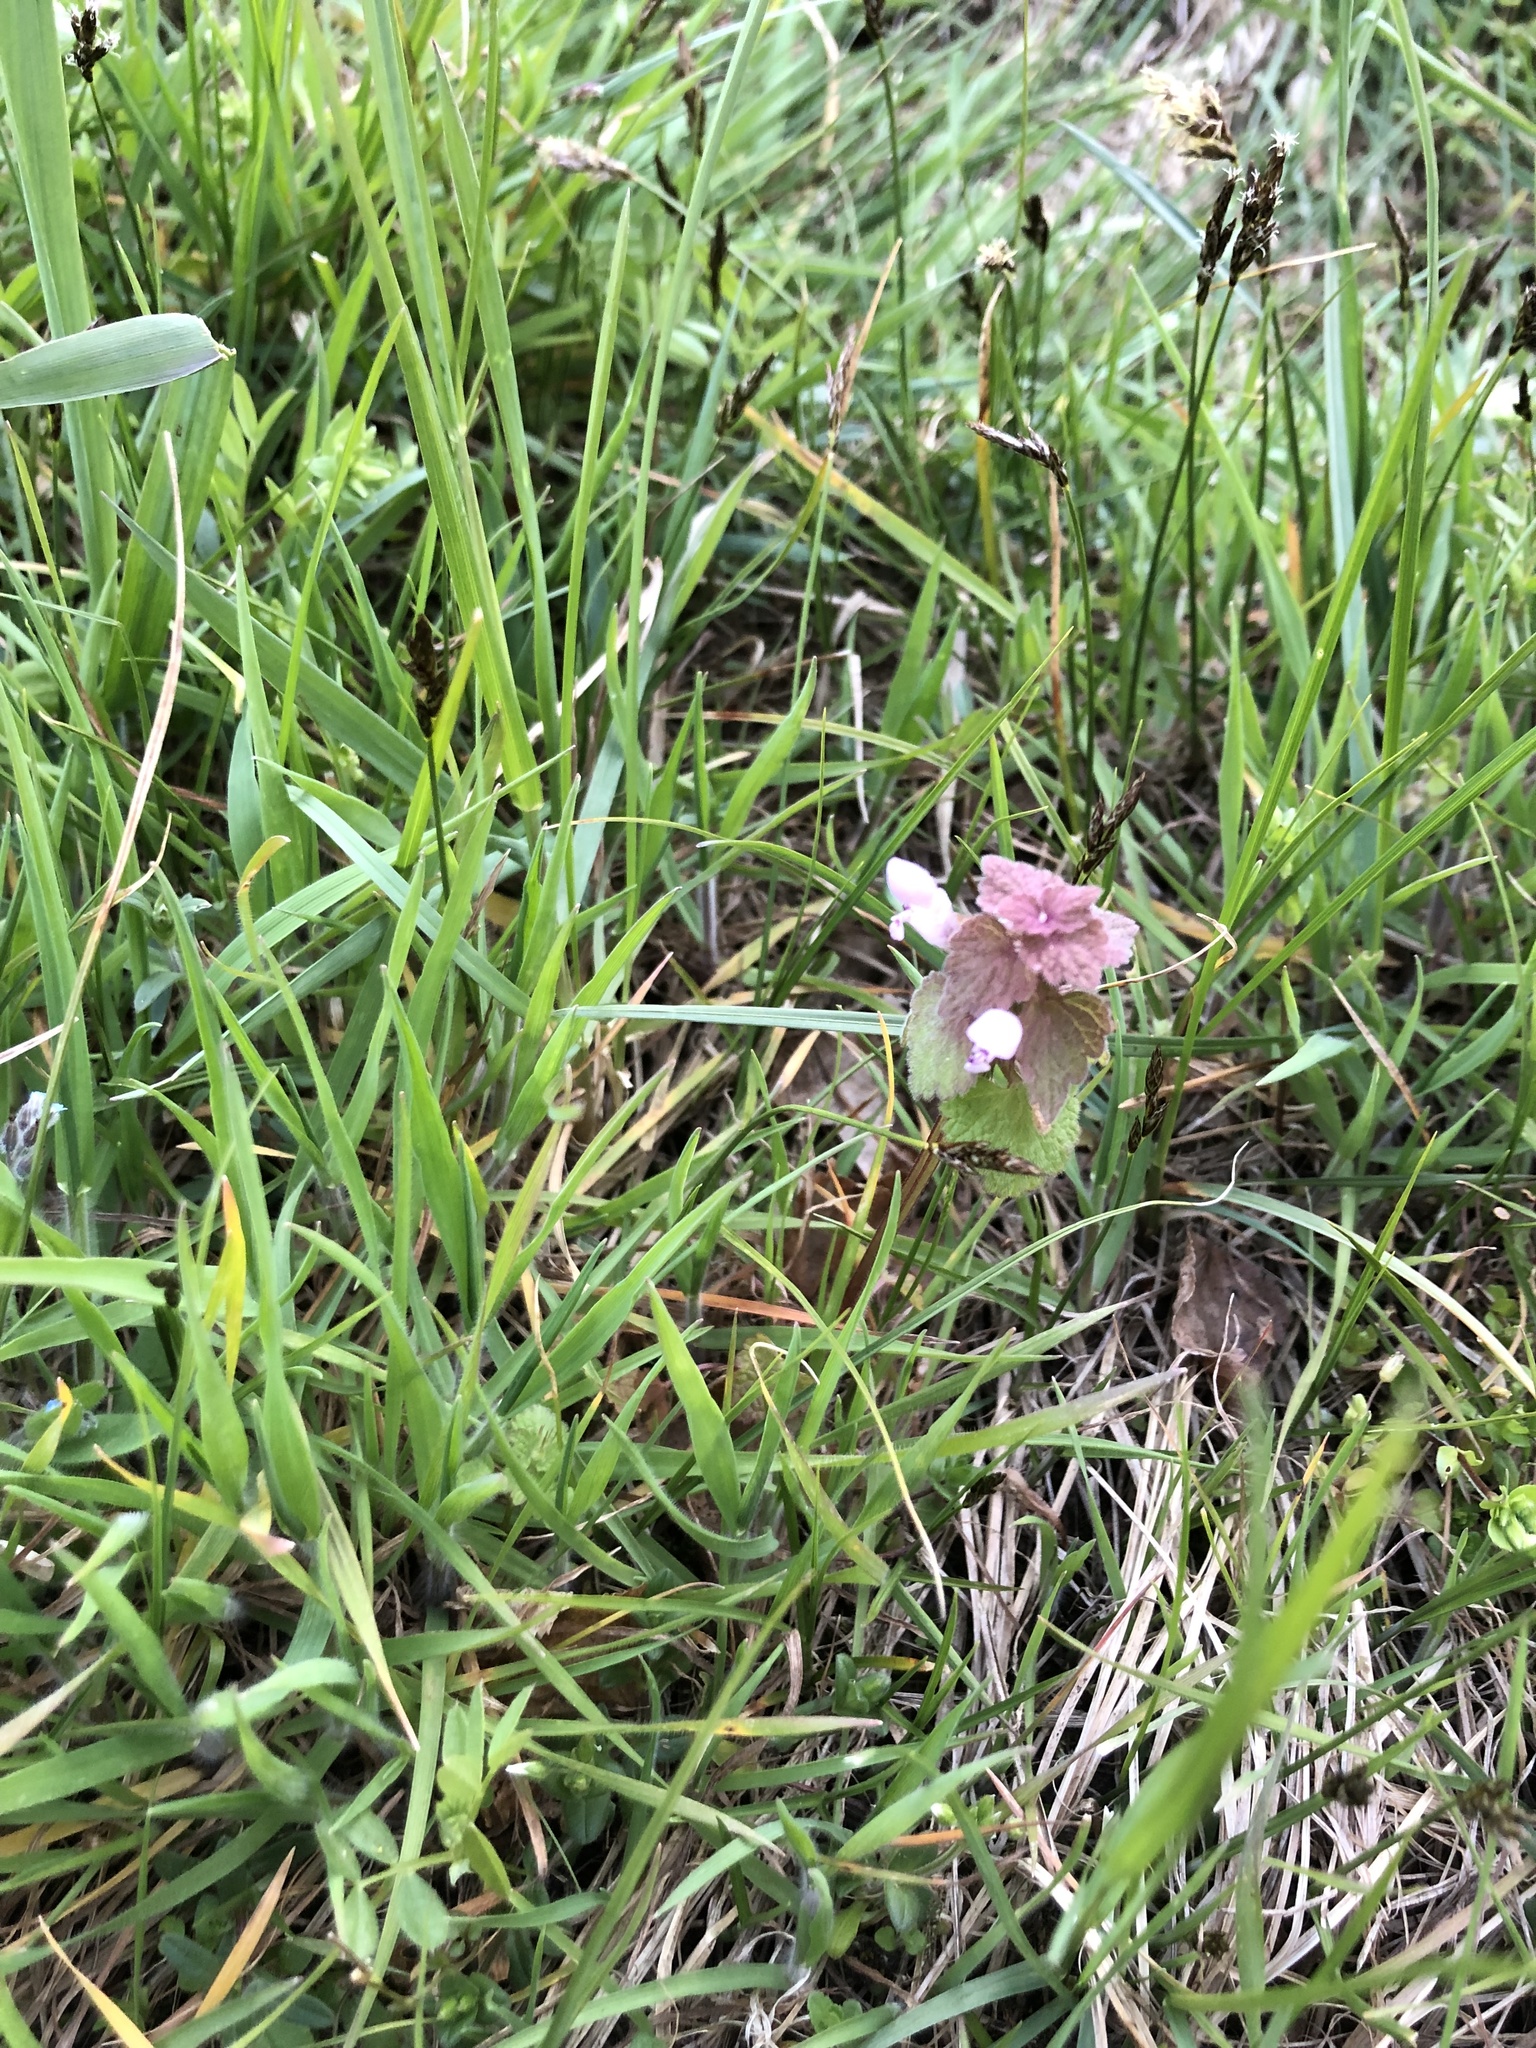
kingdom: Plantae
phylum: Tracheophyta
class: Magnoliopsida
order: Lamiales
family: Lamiaceae
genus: Lamium
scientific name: Lamium purpureum
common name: Red dead-nettle
